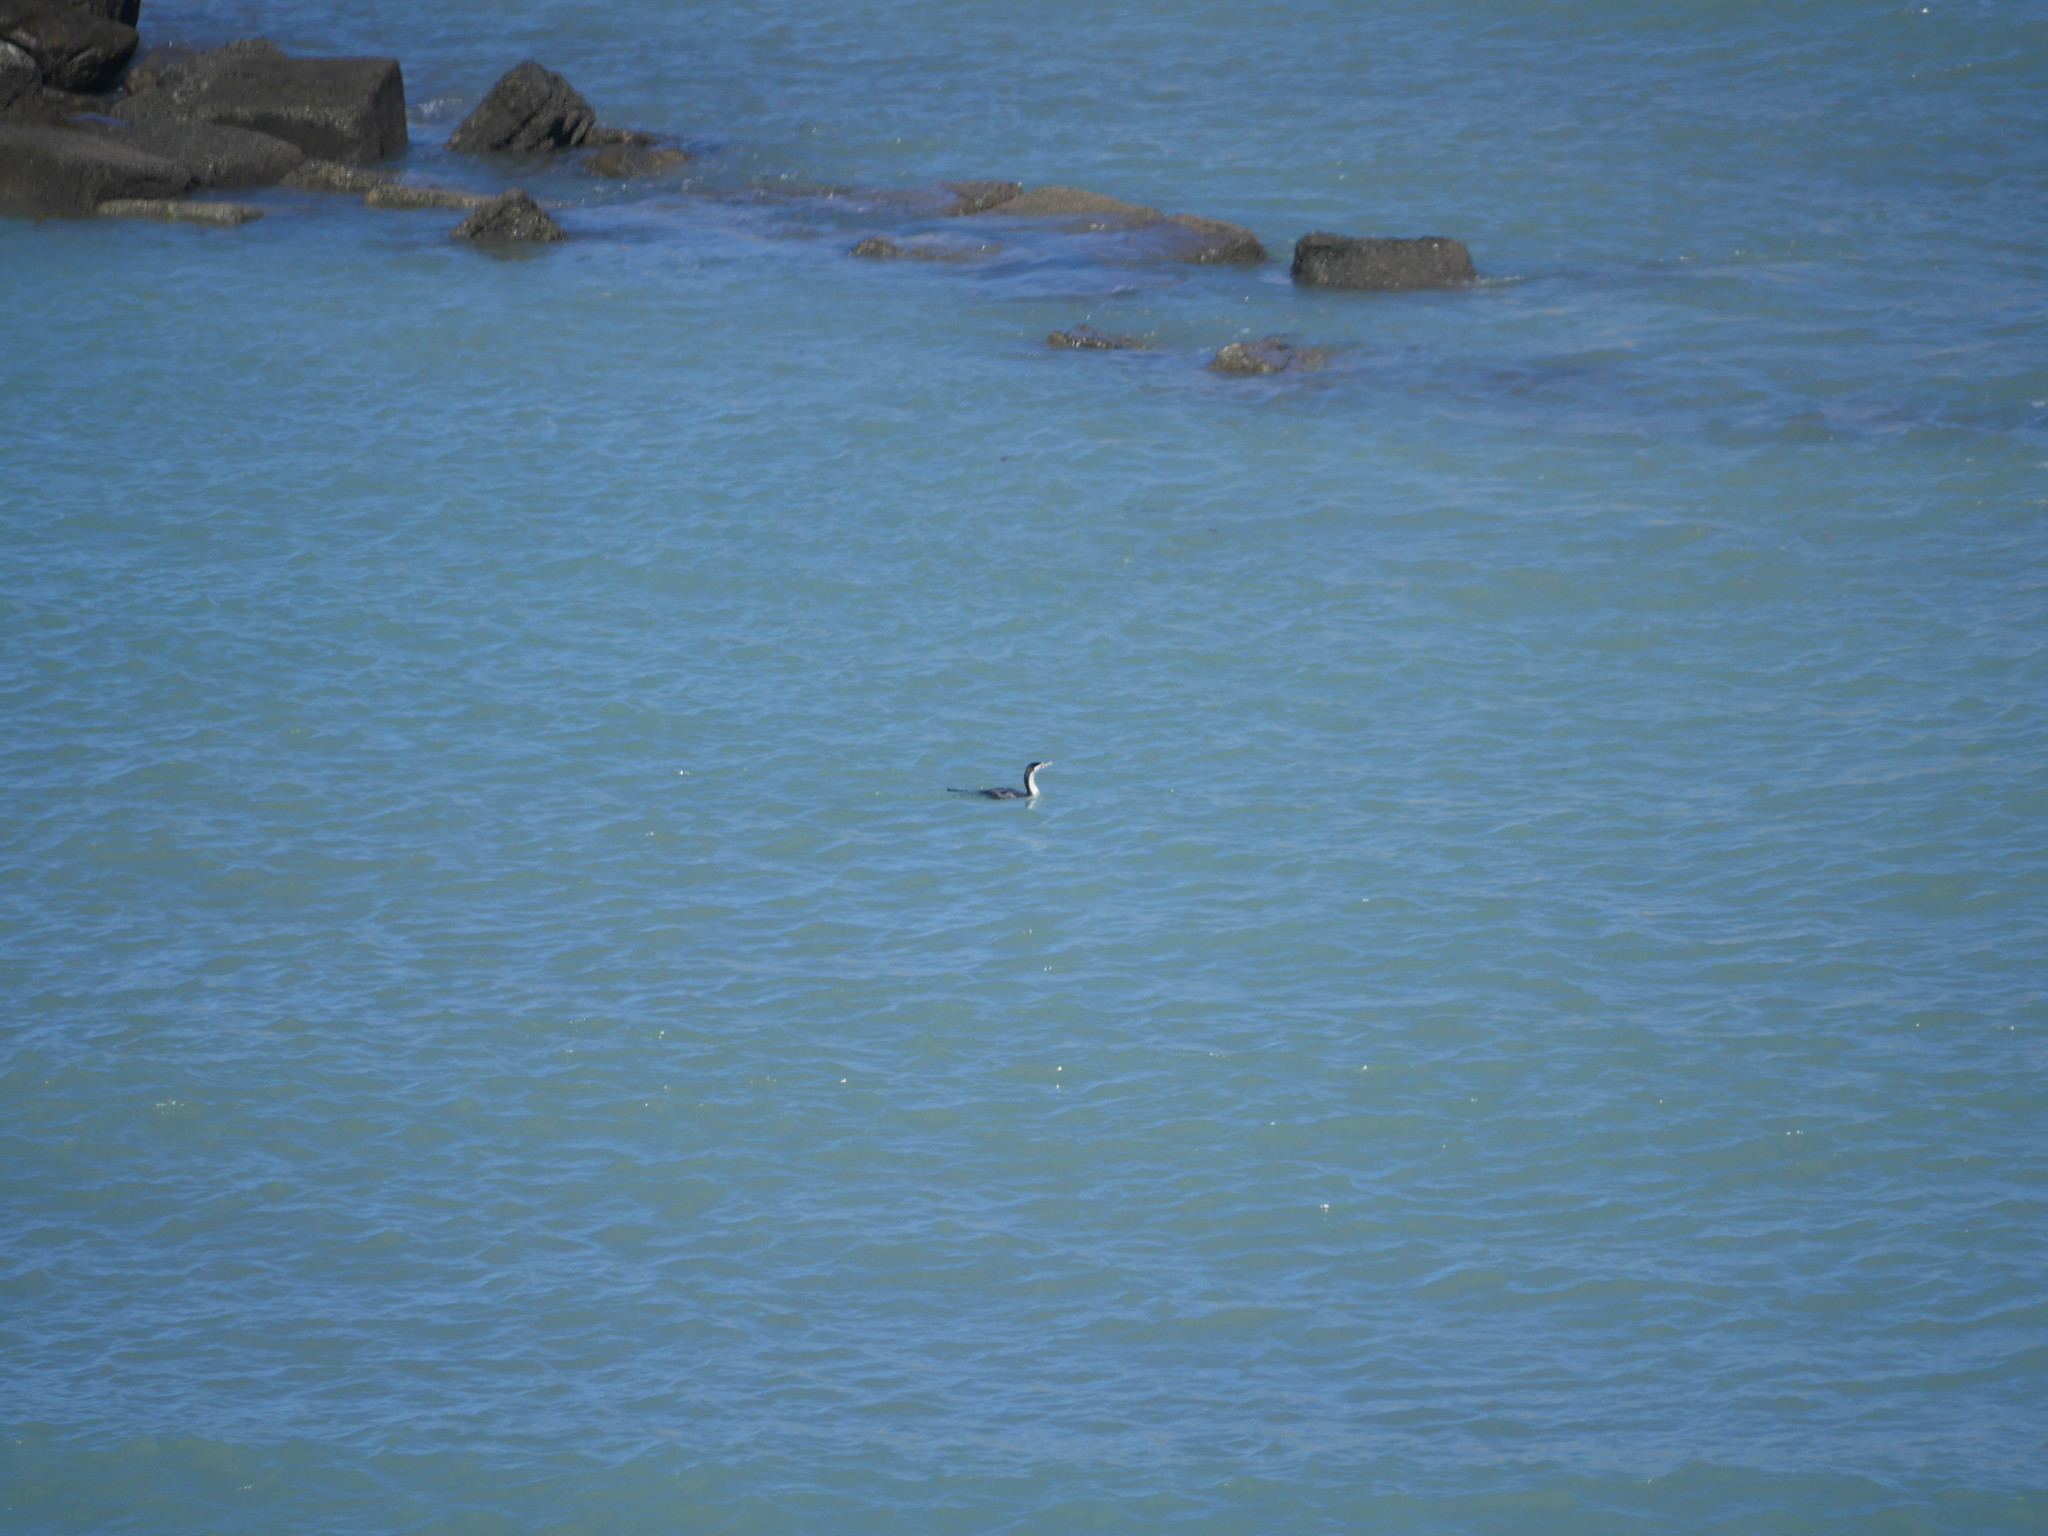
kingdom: Animalia
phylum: Chordata
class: Aves
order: Suliformes
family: Phalacrocoracidae
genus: Phalacrocorax
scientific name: Phalacrocorax varius
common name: Pied cormorant
